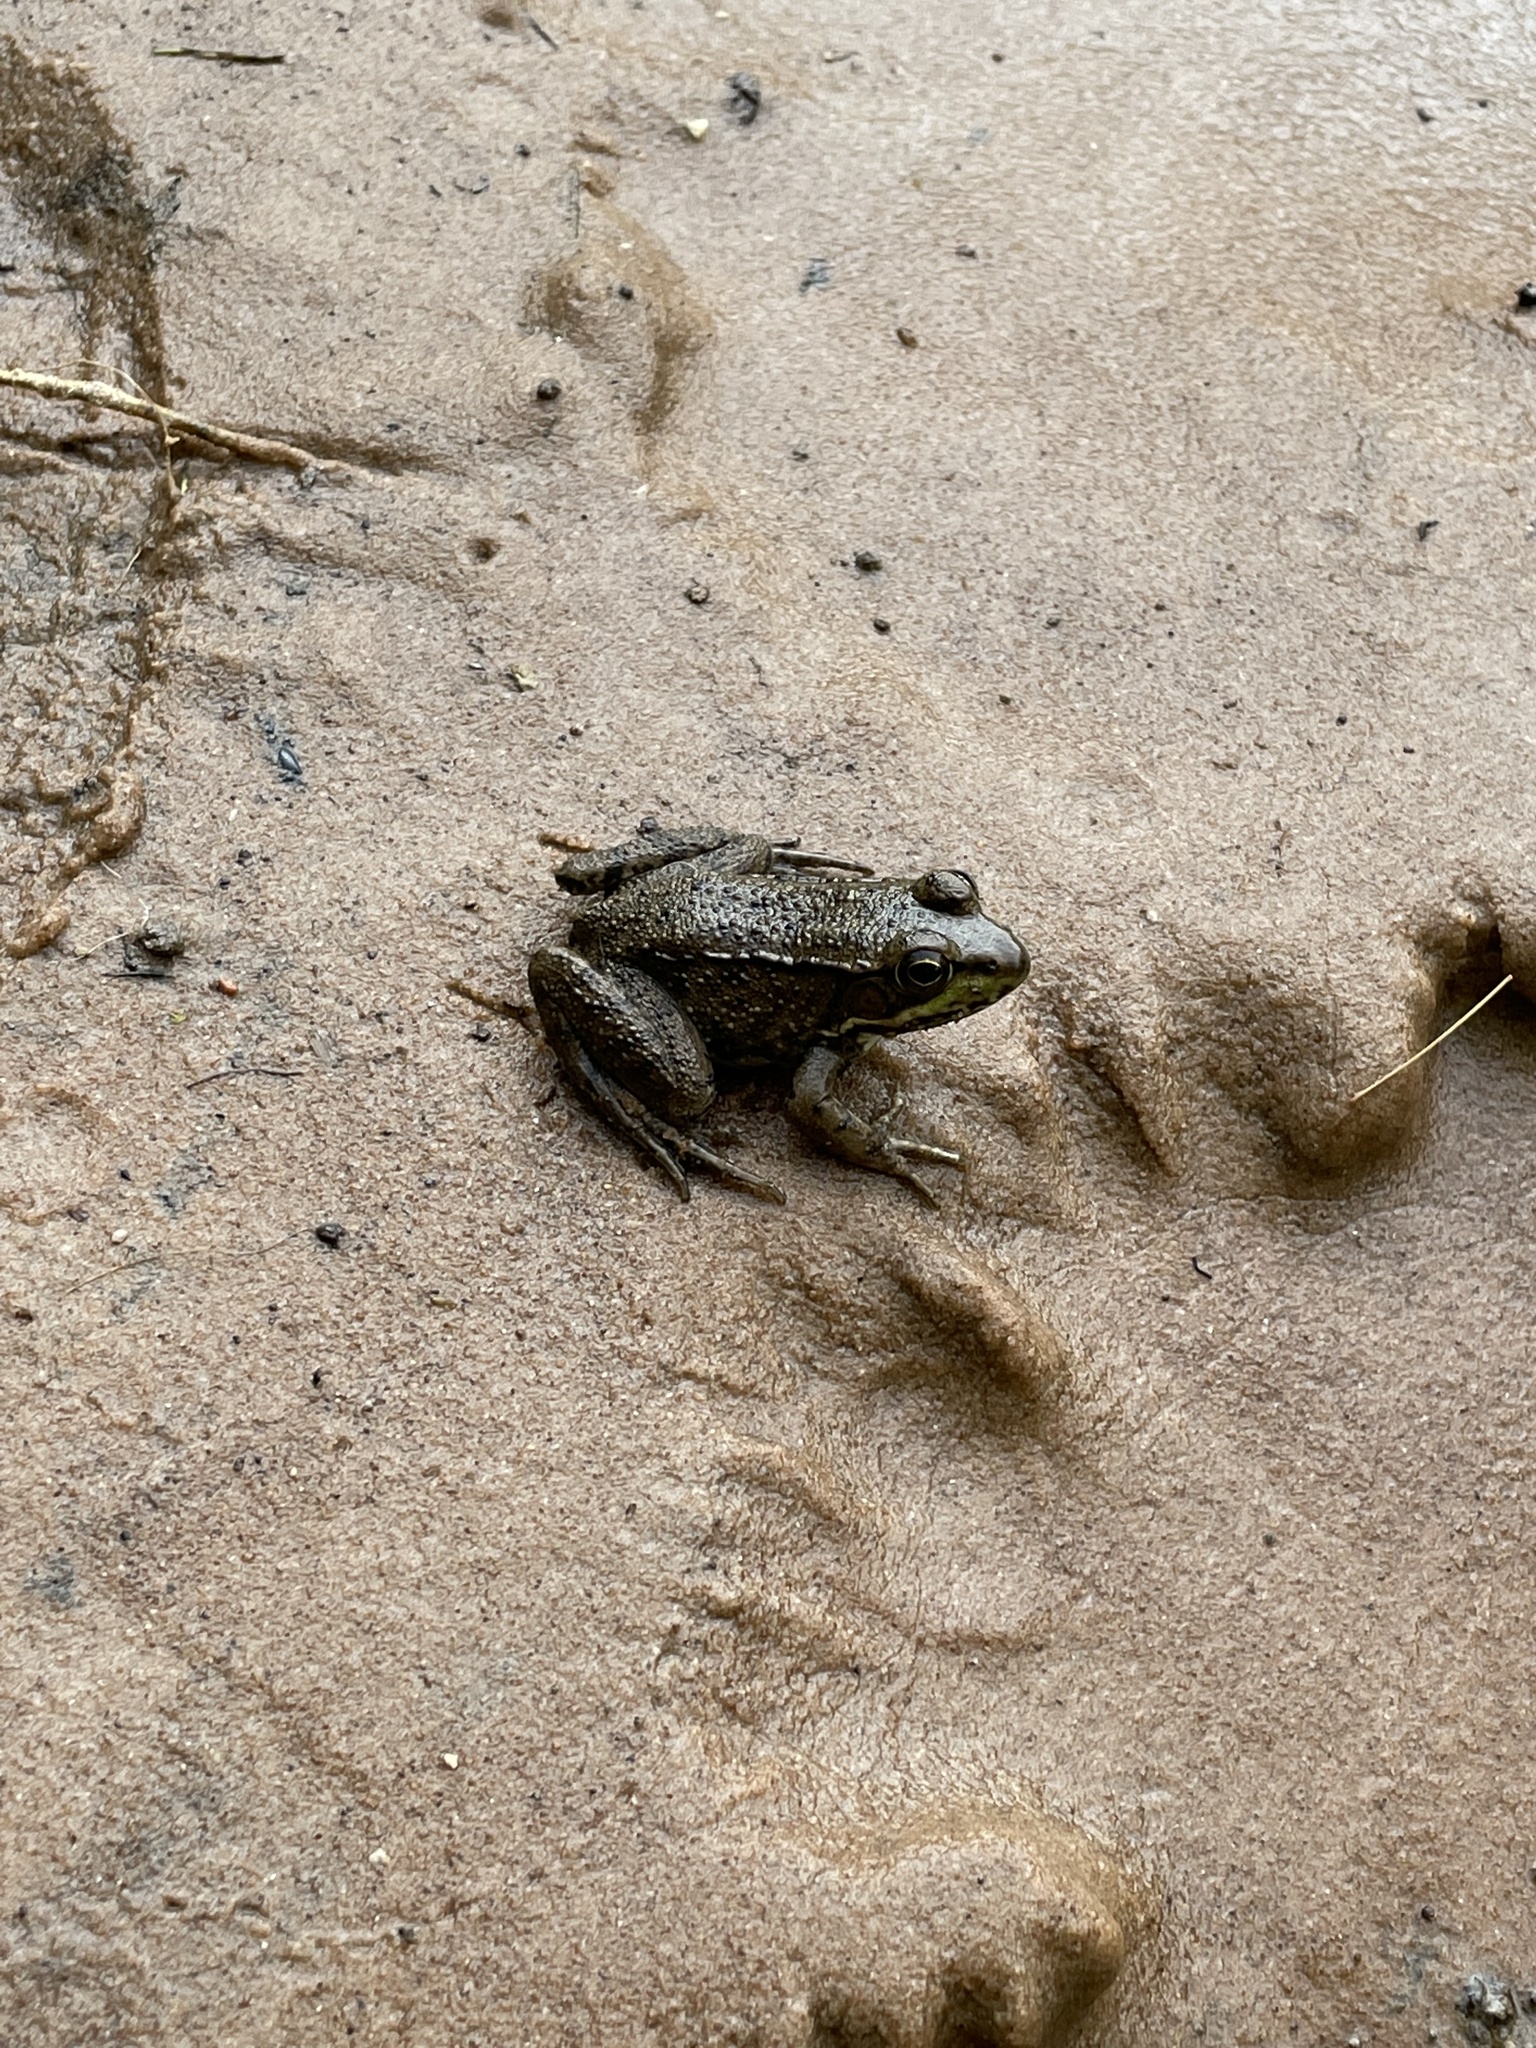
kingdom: Animalia
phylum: Chordata
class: Amphibia
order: Anura
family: Ranidae
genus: Lithobates
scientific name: Lithobates clamitans
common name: Green frog
